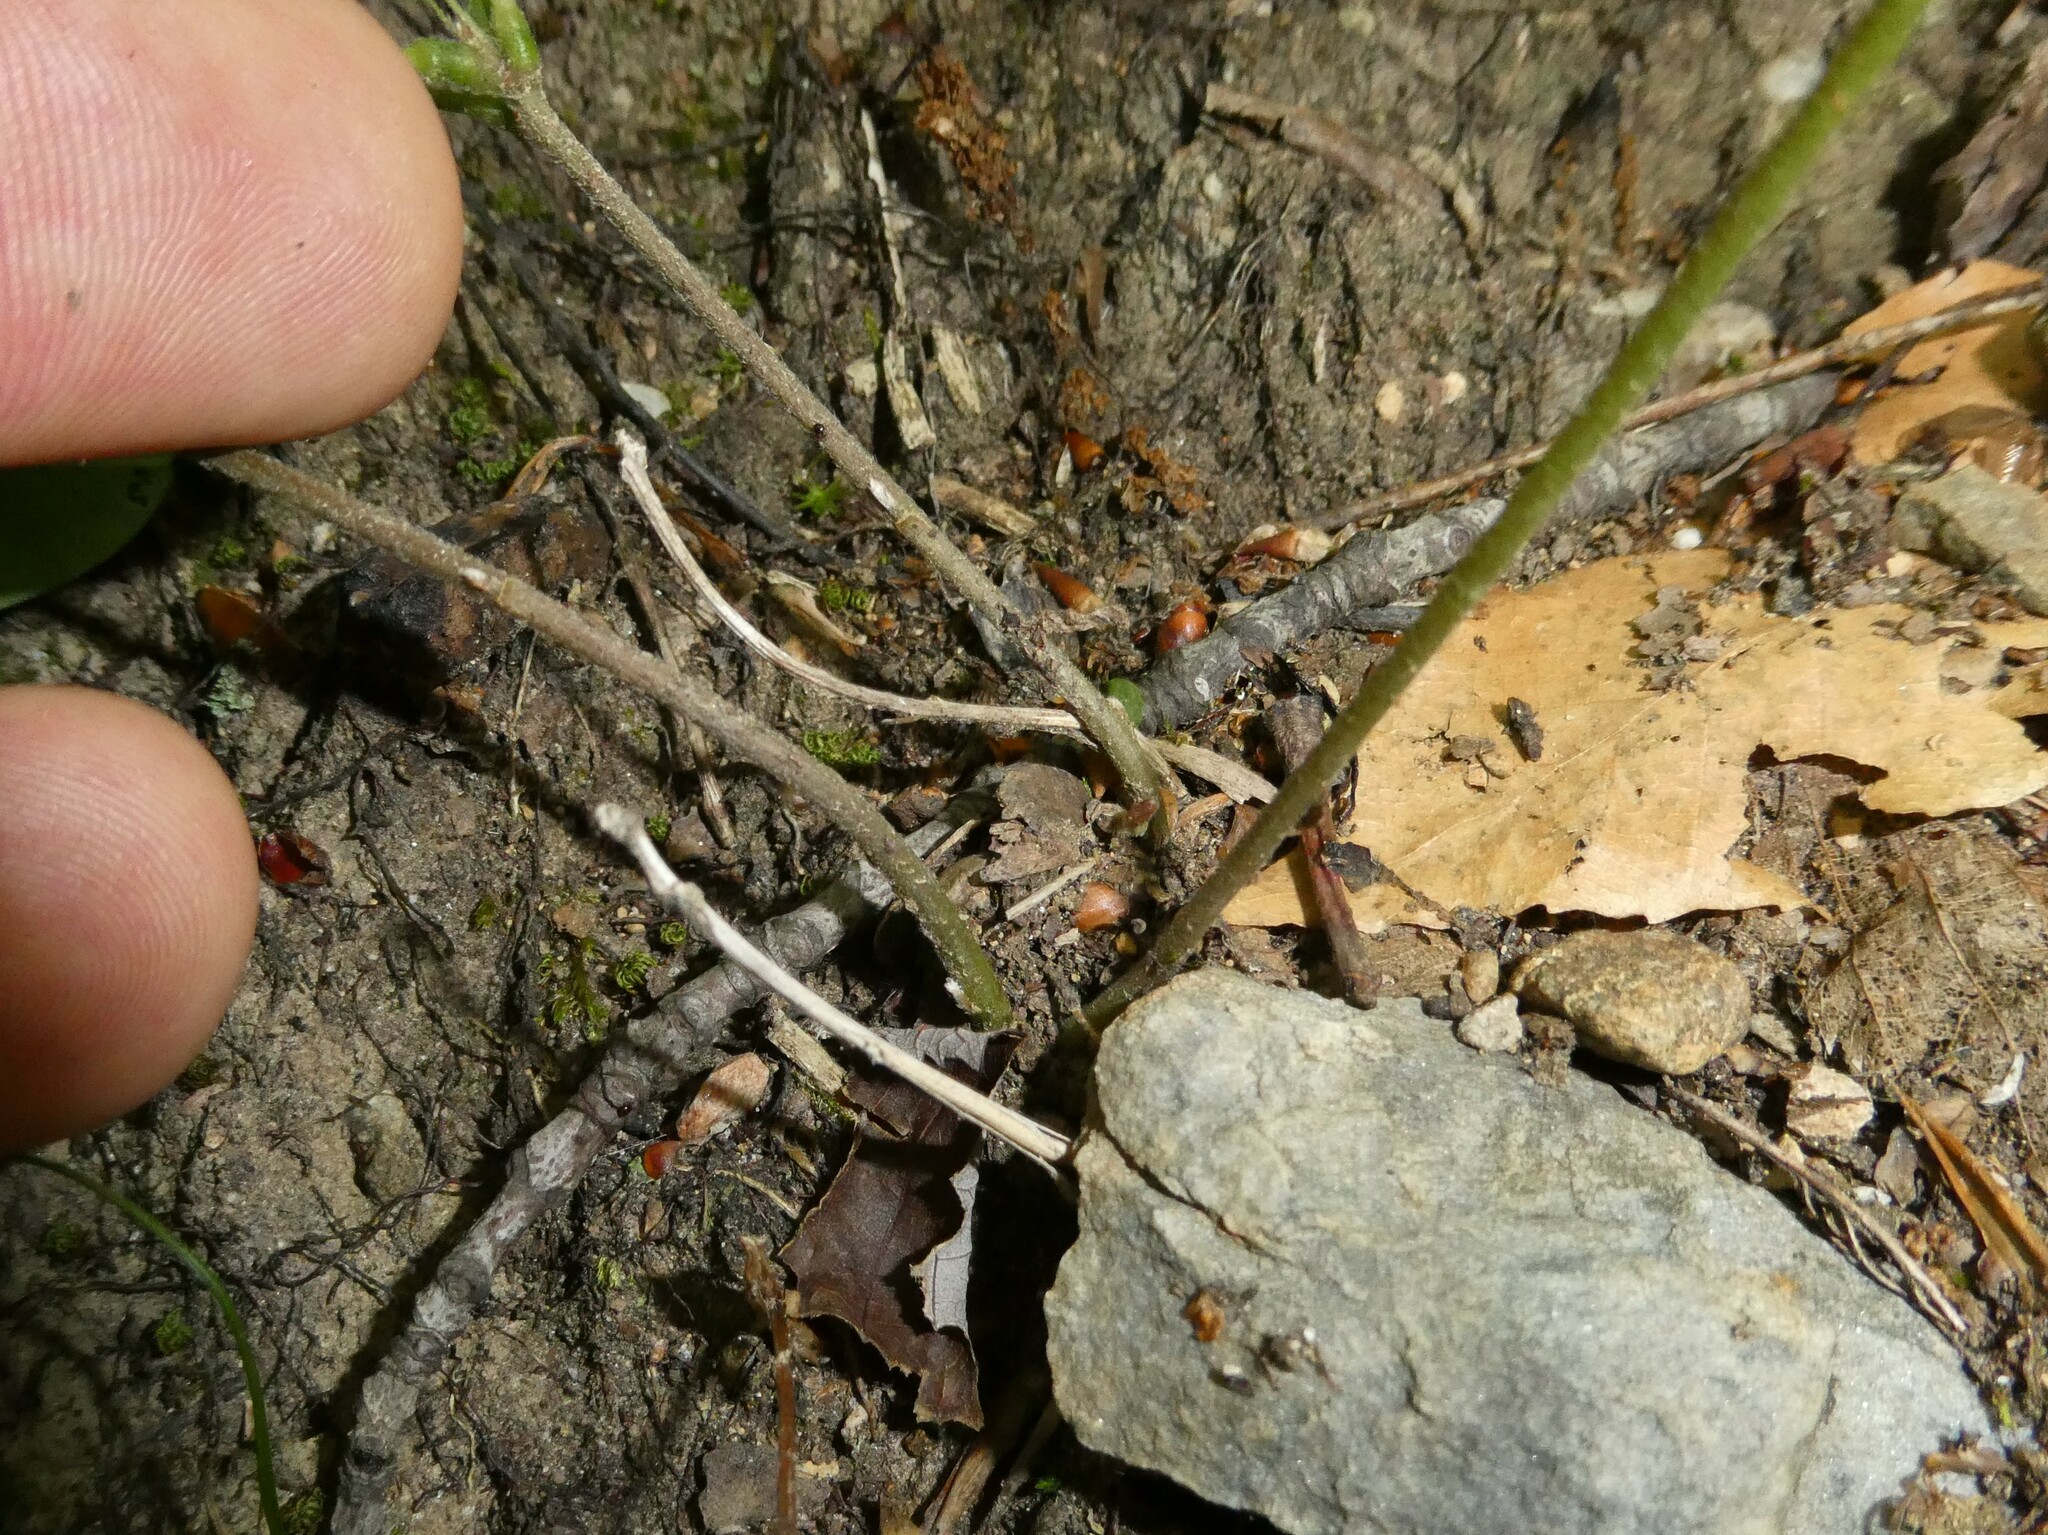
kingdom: Plantae
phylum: Tracheophyta
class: Magnoliopsida
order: Fabales
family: Fabaceae
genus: Hylodesmum
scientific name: Hylodesmum nudiflorum
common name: Bare-stemmed tick-trefoil
